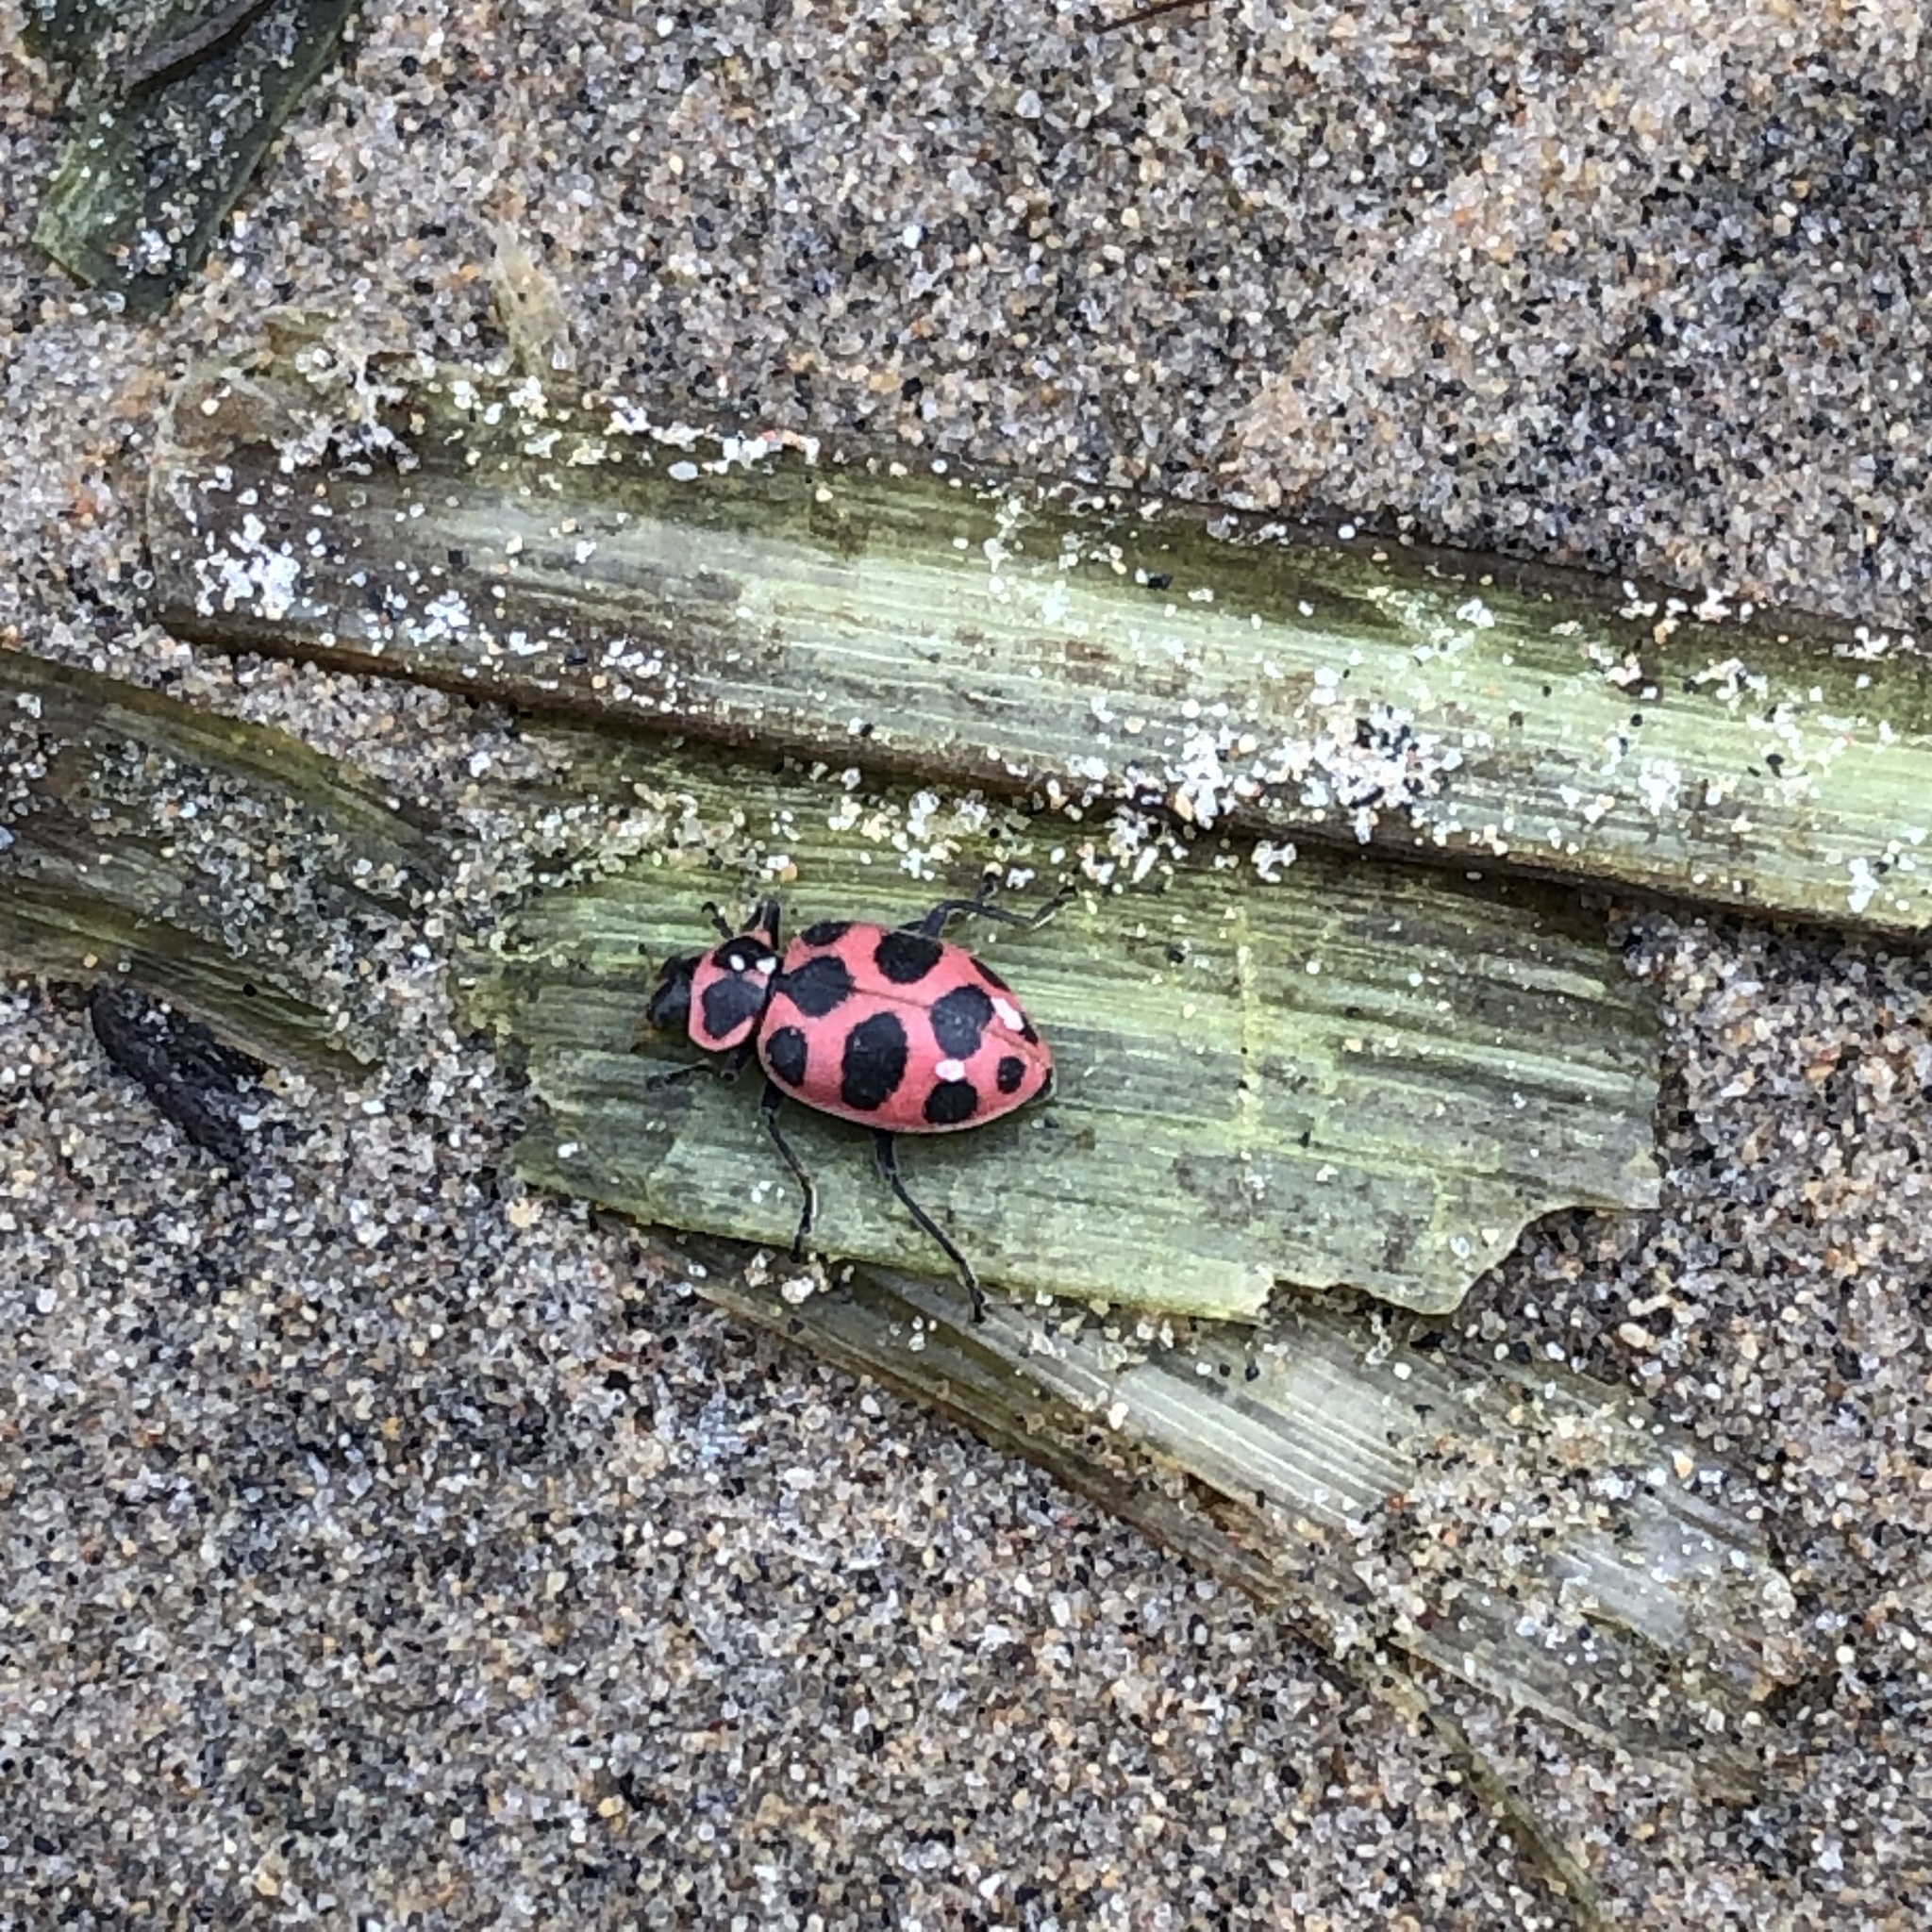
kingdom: Animalia
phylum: Arthropoda
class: Insecta
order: Coleoptera
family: Coccinellidae
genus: Coleomegilla
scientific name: Coleomegilla maculata
